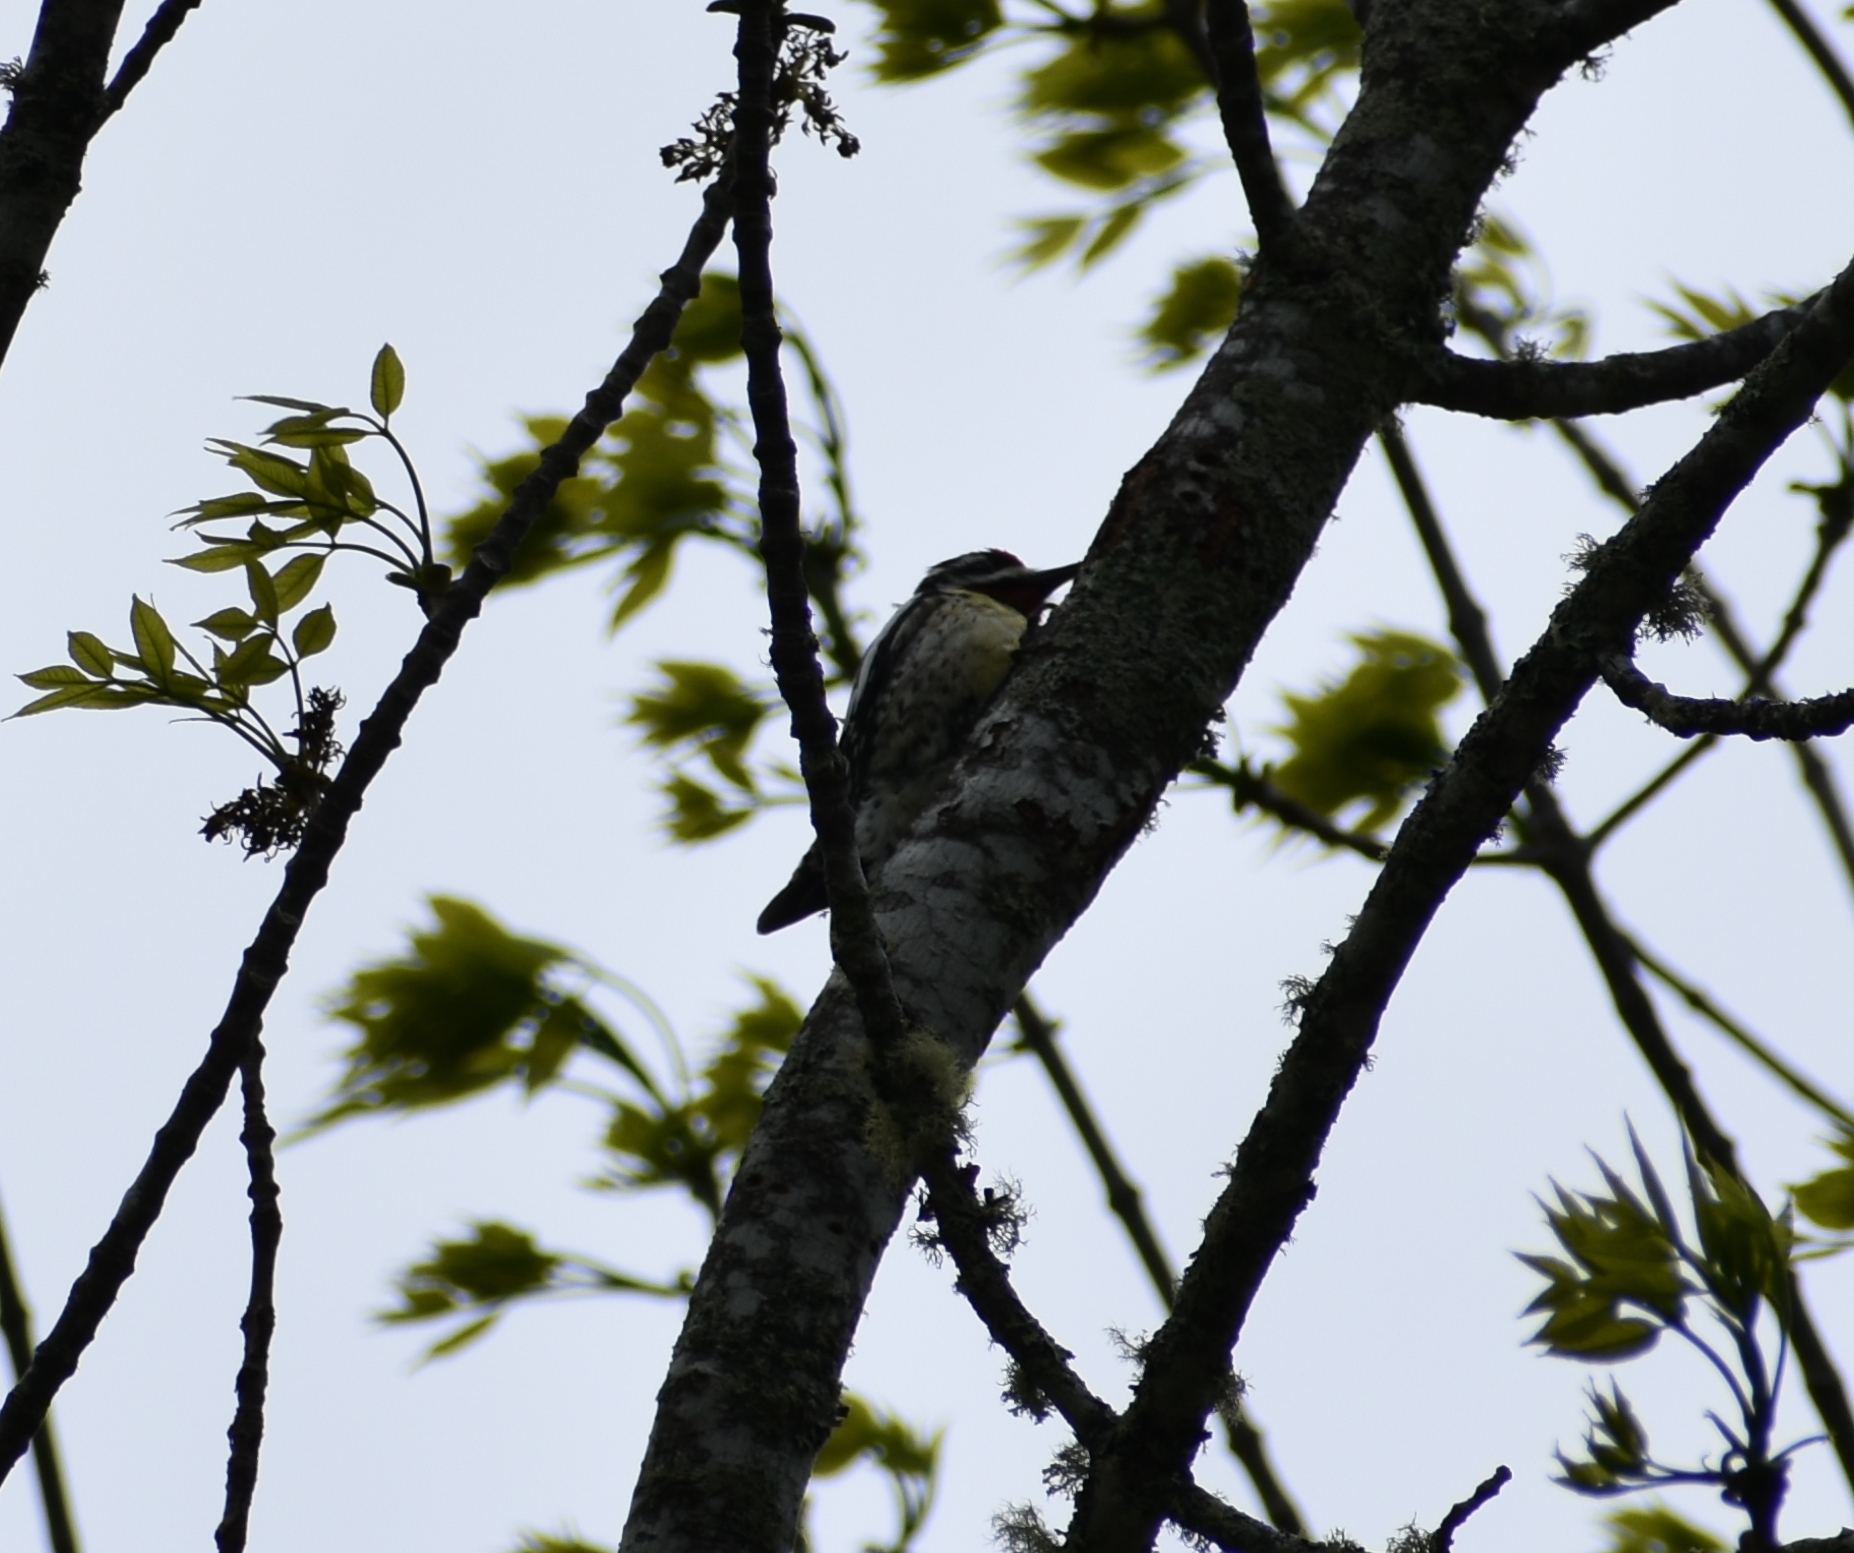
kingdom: Animalia
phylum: Chordata
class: Aves
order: Piciformes
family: Picidae
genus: Sphyrapicus
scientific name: Sphyrapicus varius
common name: Yellow-bellied sapsucker
